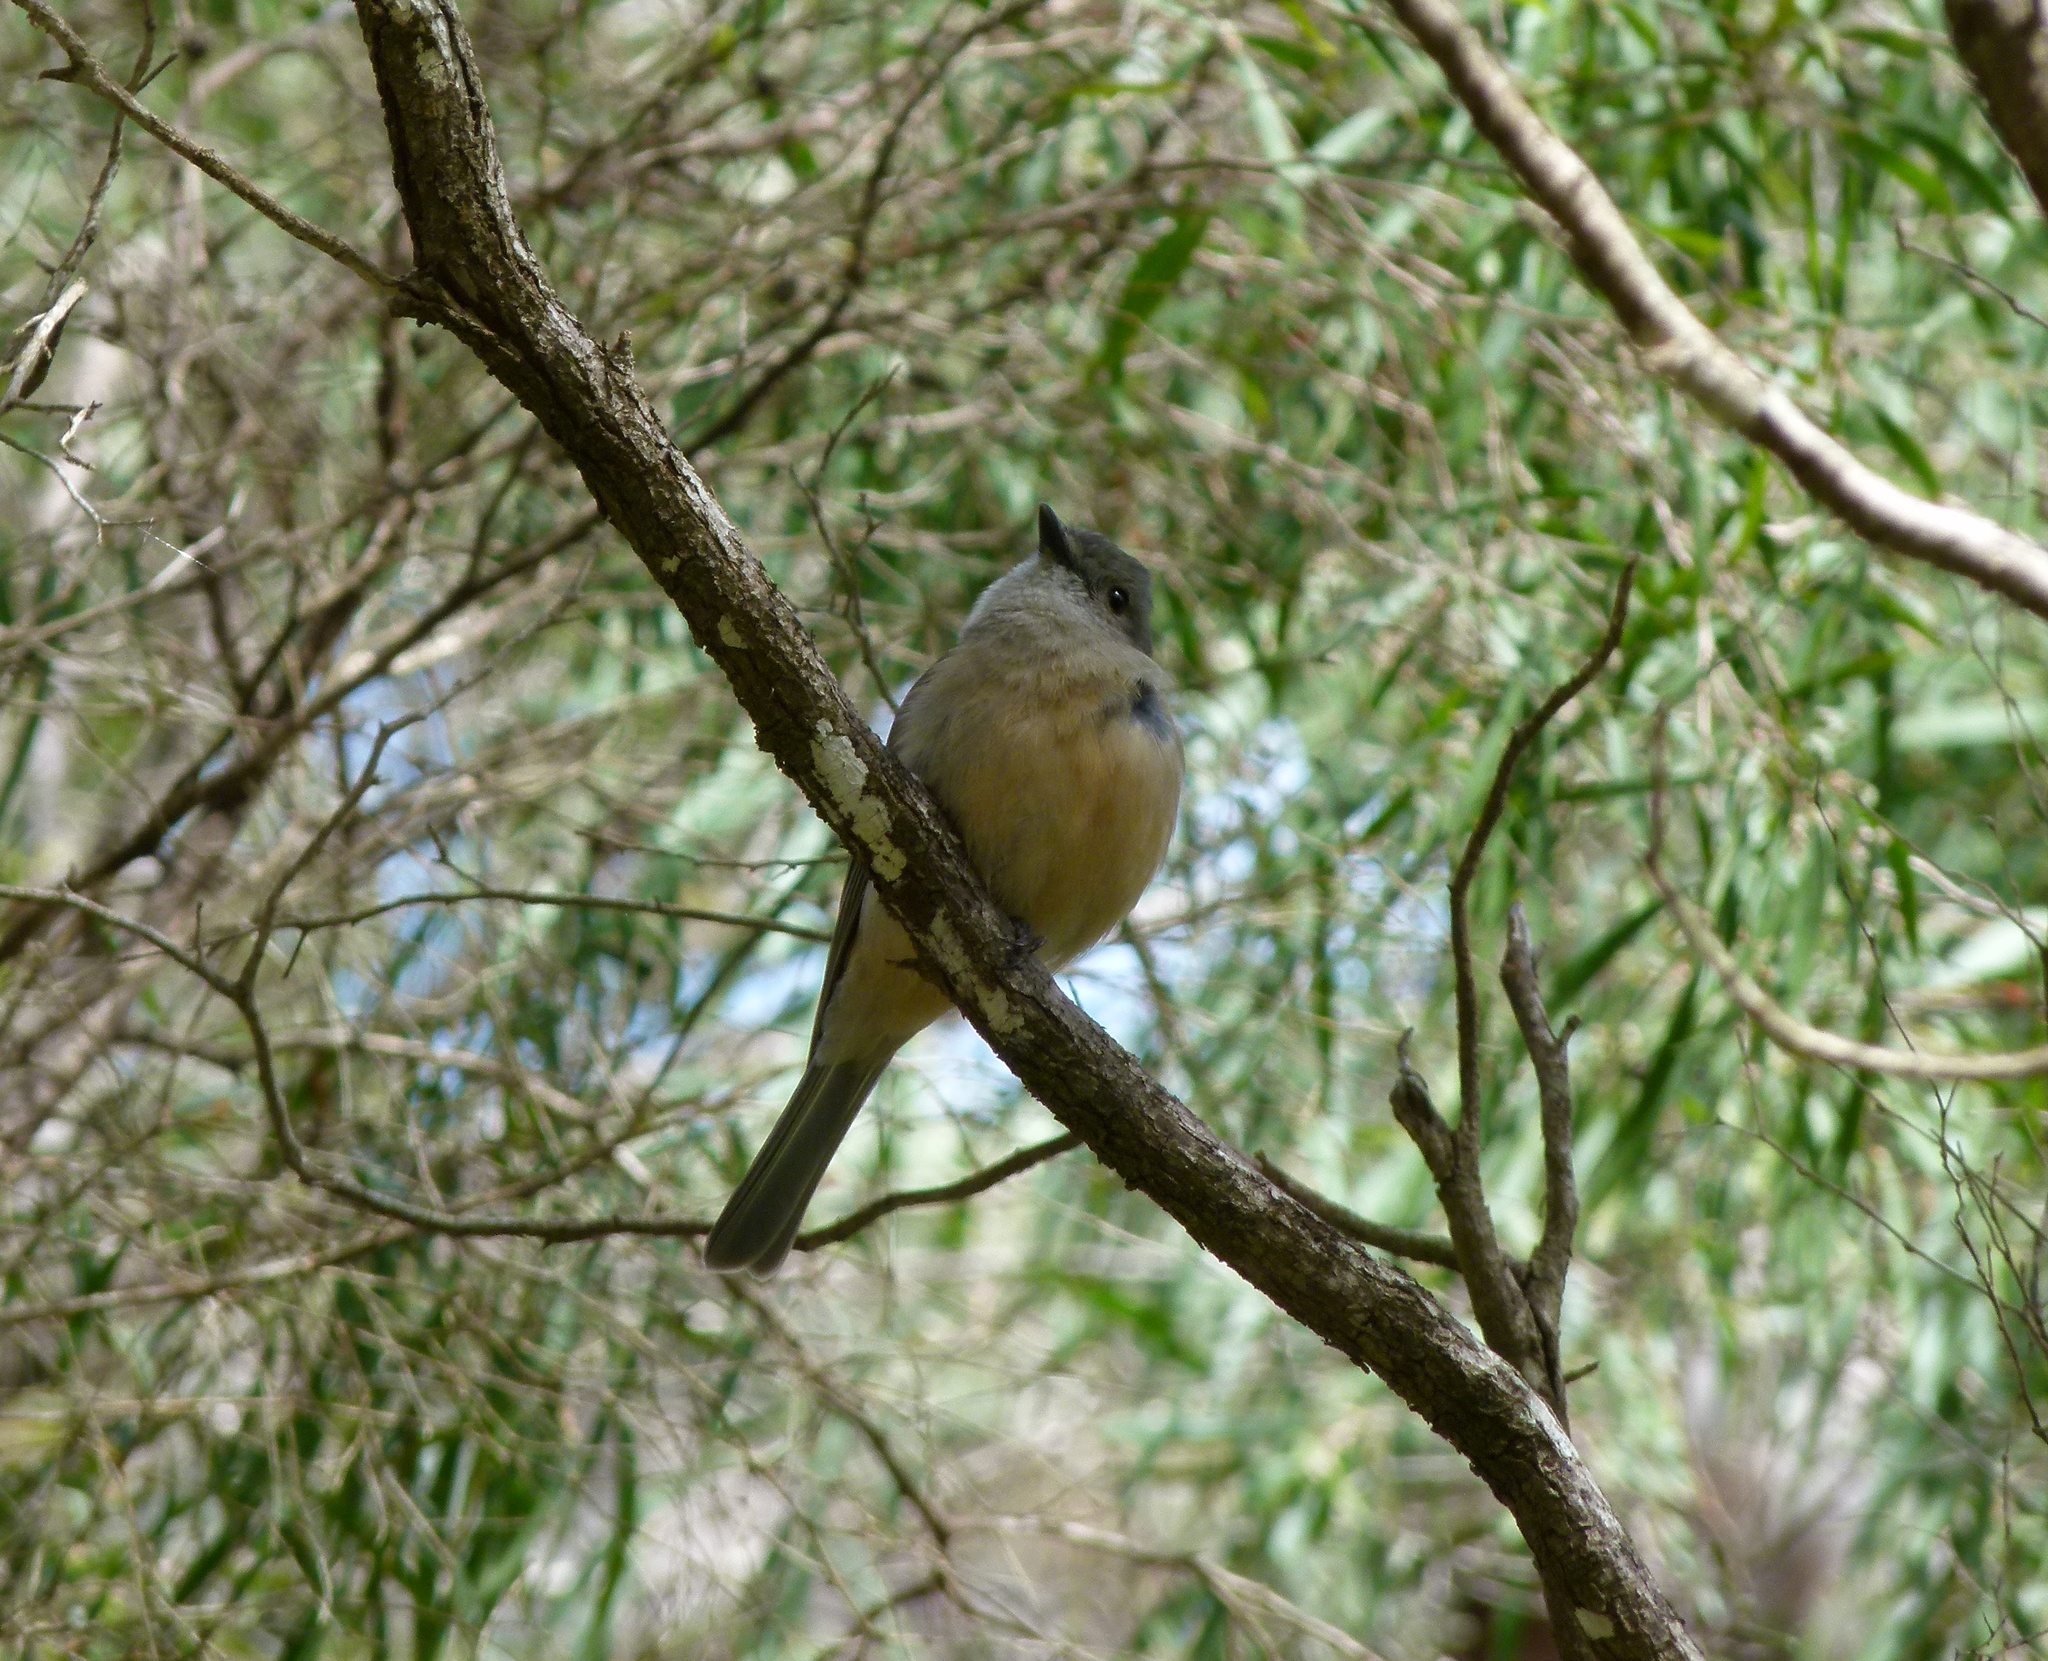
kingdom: Animalia
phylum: Chordata
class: Aves
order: Passeriformes
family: Petroicidae
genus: Eopsaltria
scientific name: Eopsaltria griseogularis
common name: Western yellow robin
